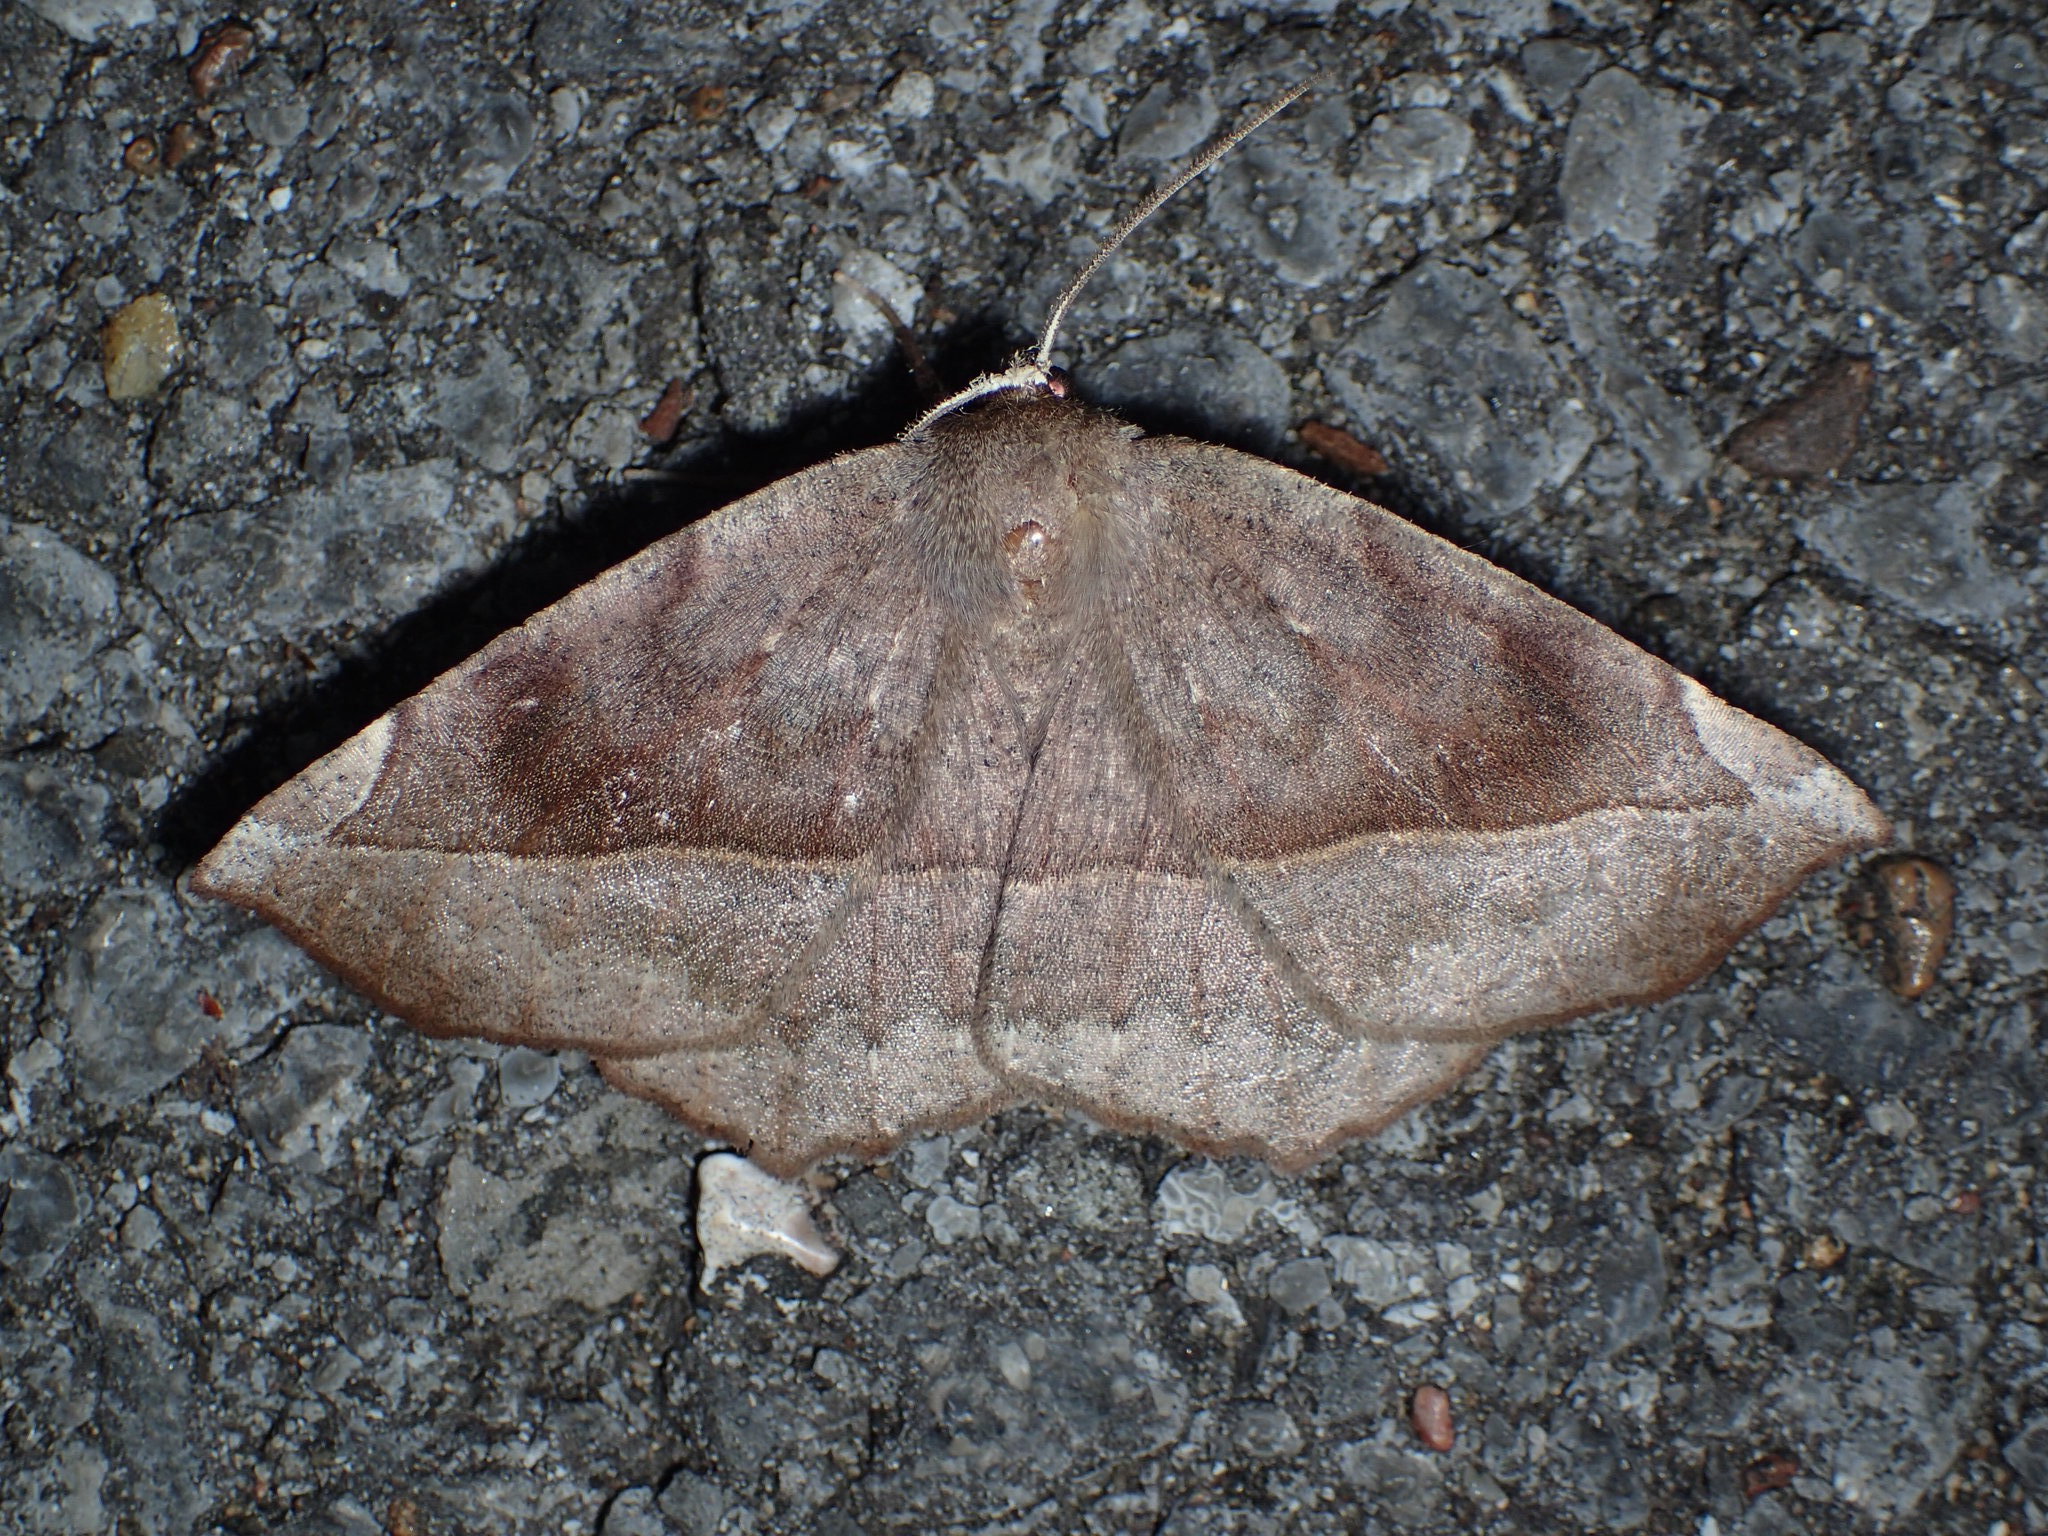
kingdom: Animalia
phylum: Arthropoda
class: Insecta
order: Lepidoptera
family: Geometridae
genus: Eutrapela
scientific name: Eutrapela clemataria
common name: Curved-toothed geometer
